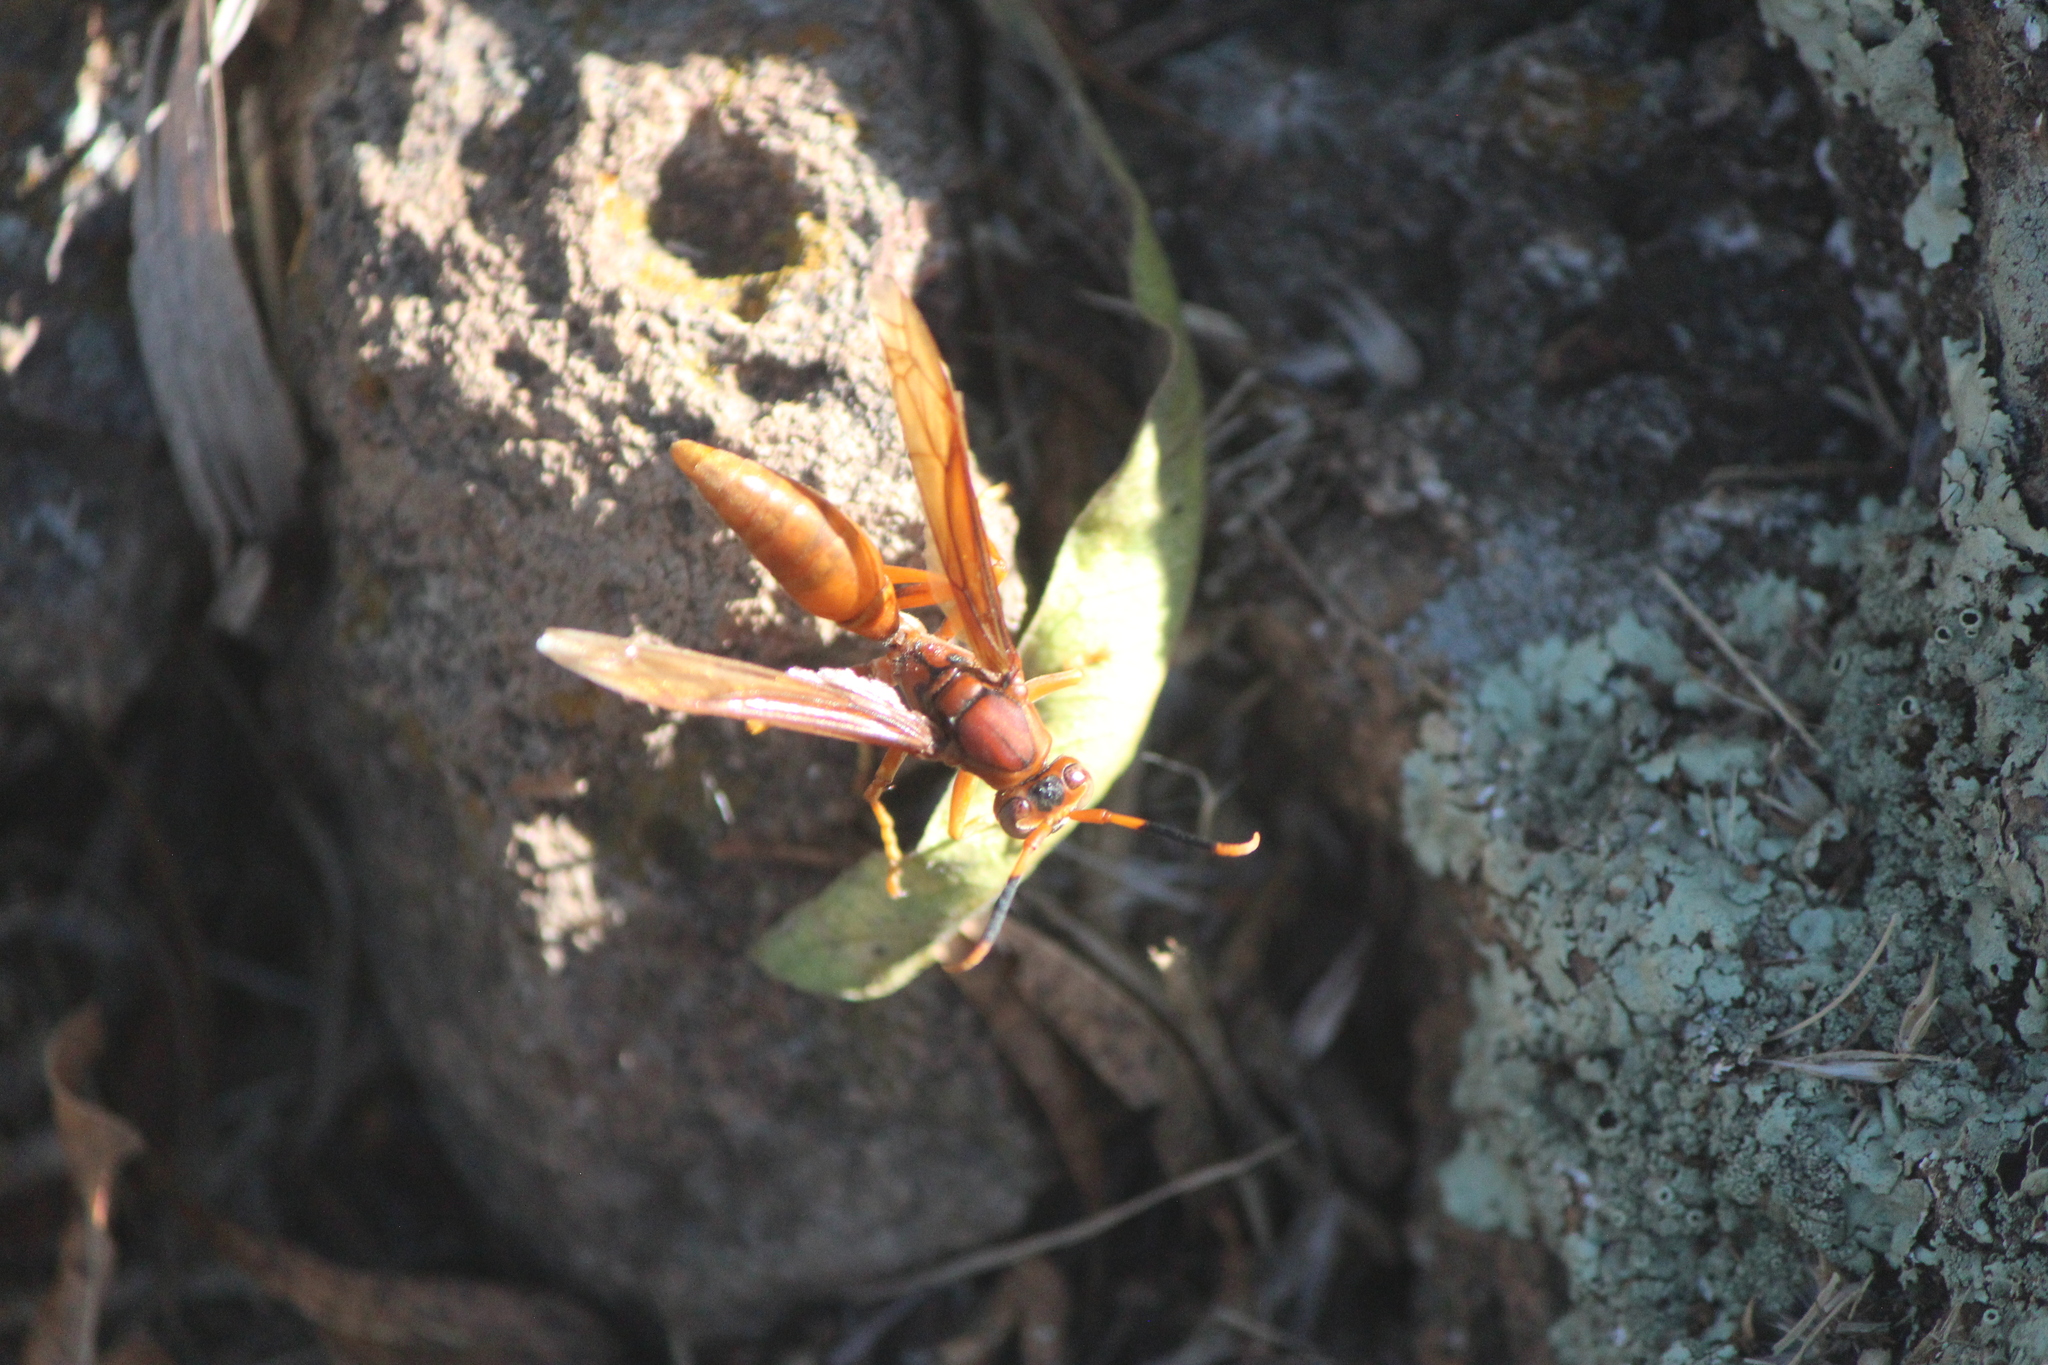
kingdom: Animalia
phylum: Arthropoda
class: Insecta
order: Hymenoptera
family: Eumenidae
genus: Polistes
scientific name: Polistes canadensis
